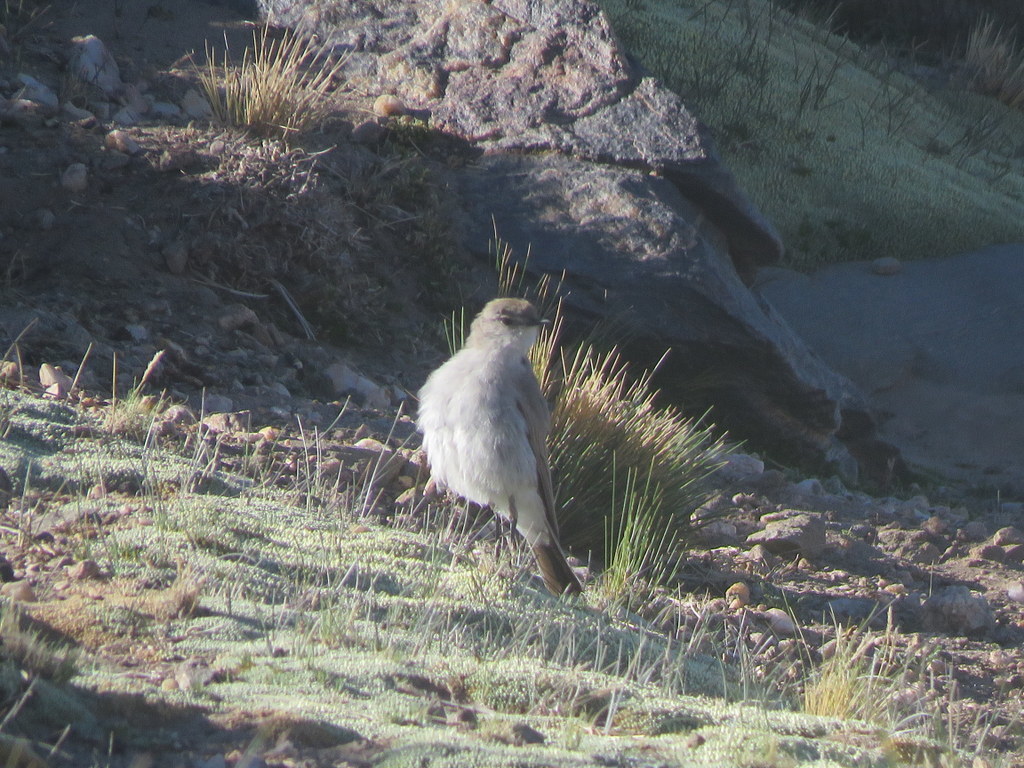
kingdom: Animalia
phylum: Chordata
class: Aves
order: Passeriformes
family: Tyrannidae
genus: Muscisaxicola
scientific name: Muscisaxicola juninensis
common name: Puna ground tyrant
